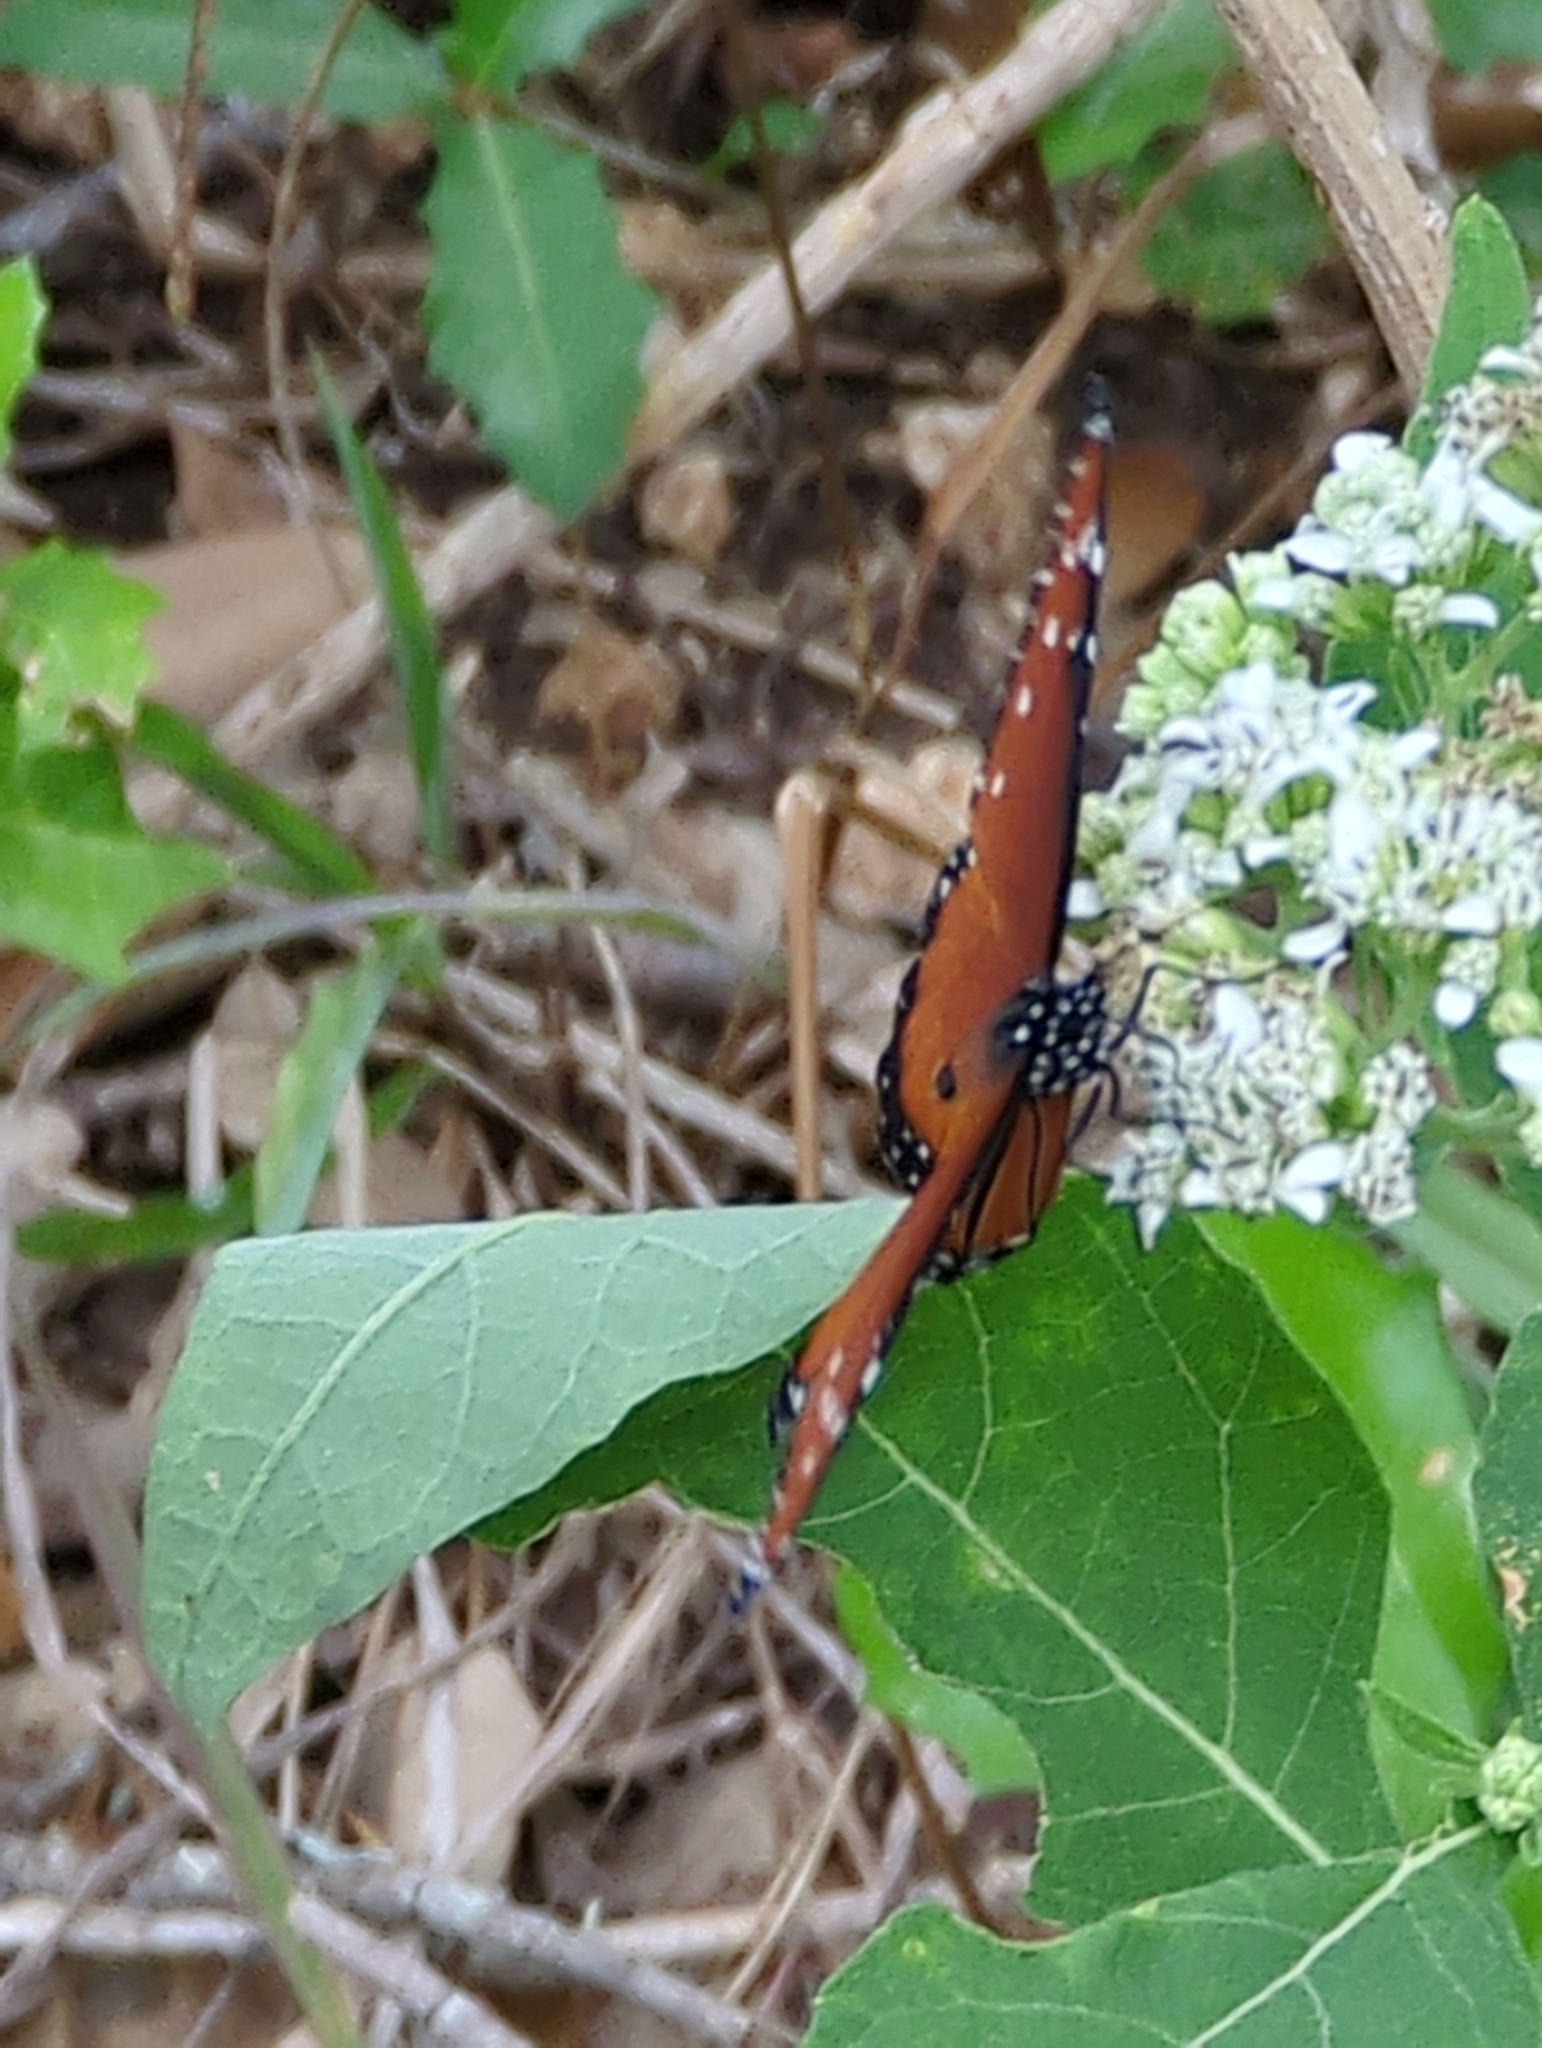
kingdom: Animalia
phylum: Arthropoda
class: Insecta
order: Lepidoptera
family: Nymphalidae
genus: Danaus
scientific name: Danaus gilippus
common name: Queen
